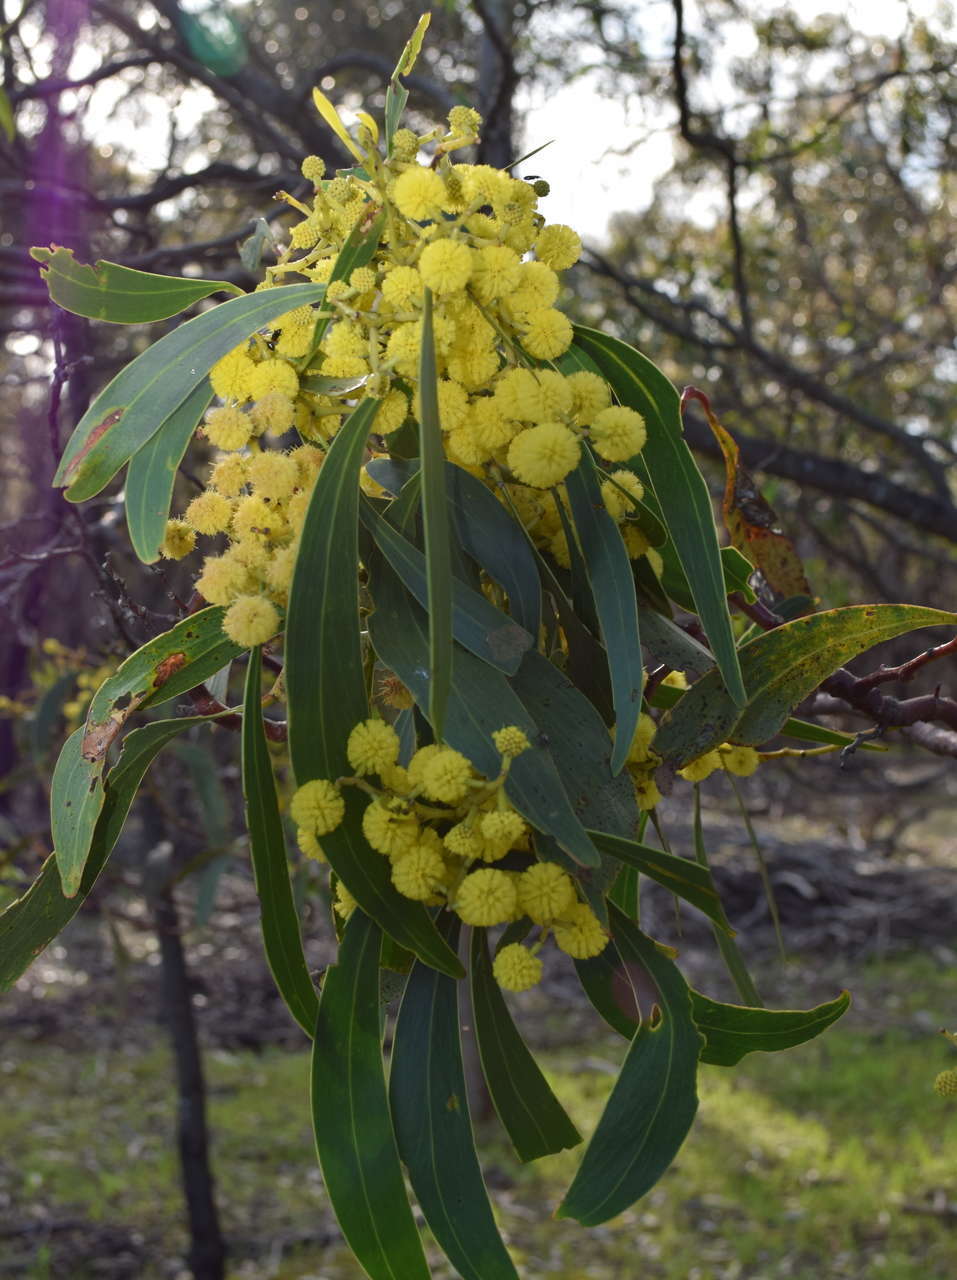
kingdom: Plantae
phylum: Tracheophyta
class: Magnoliopsida
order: Fabales
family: Fabaceae
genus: Acacia
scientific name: Acacia pycnantha
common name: Golden wattle
